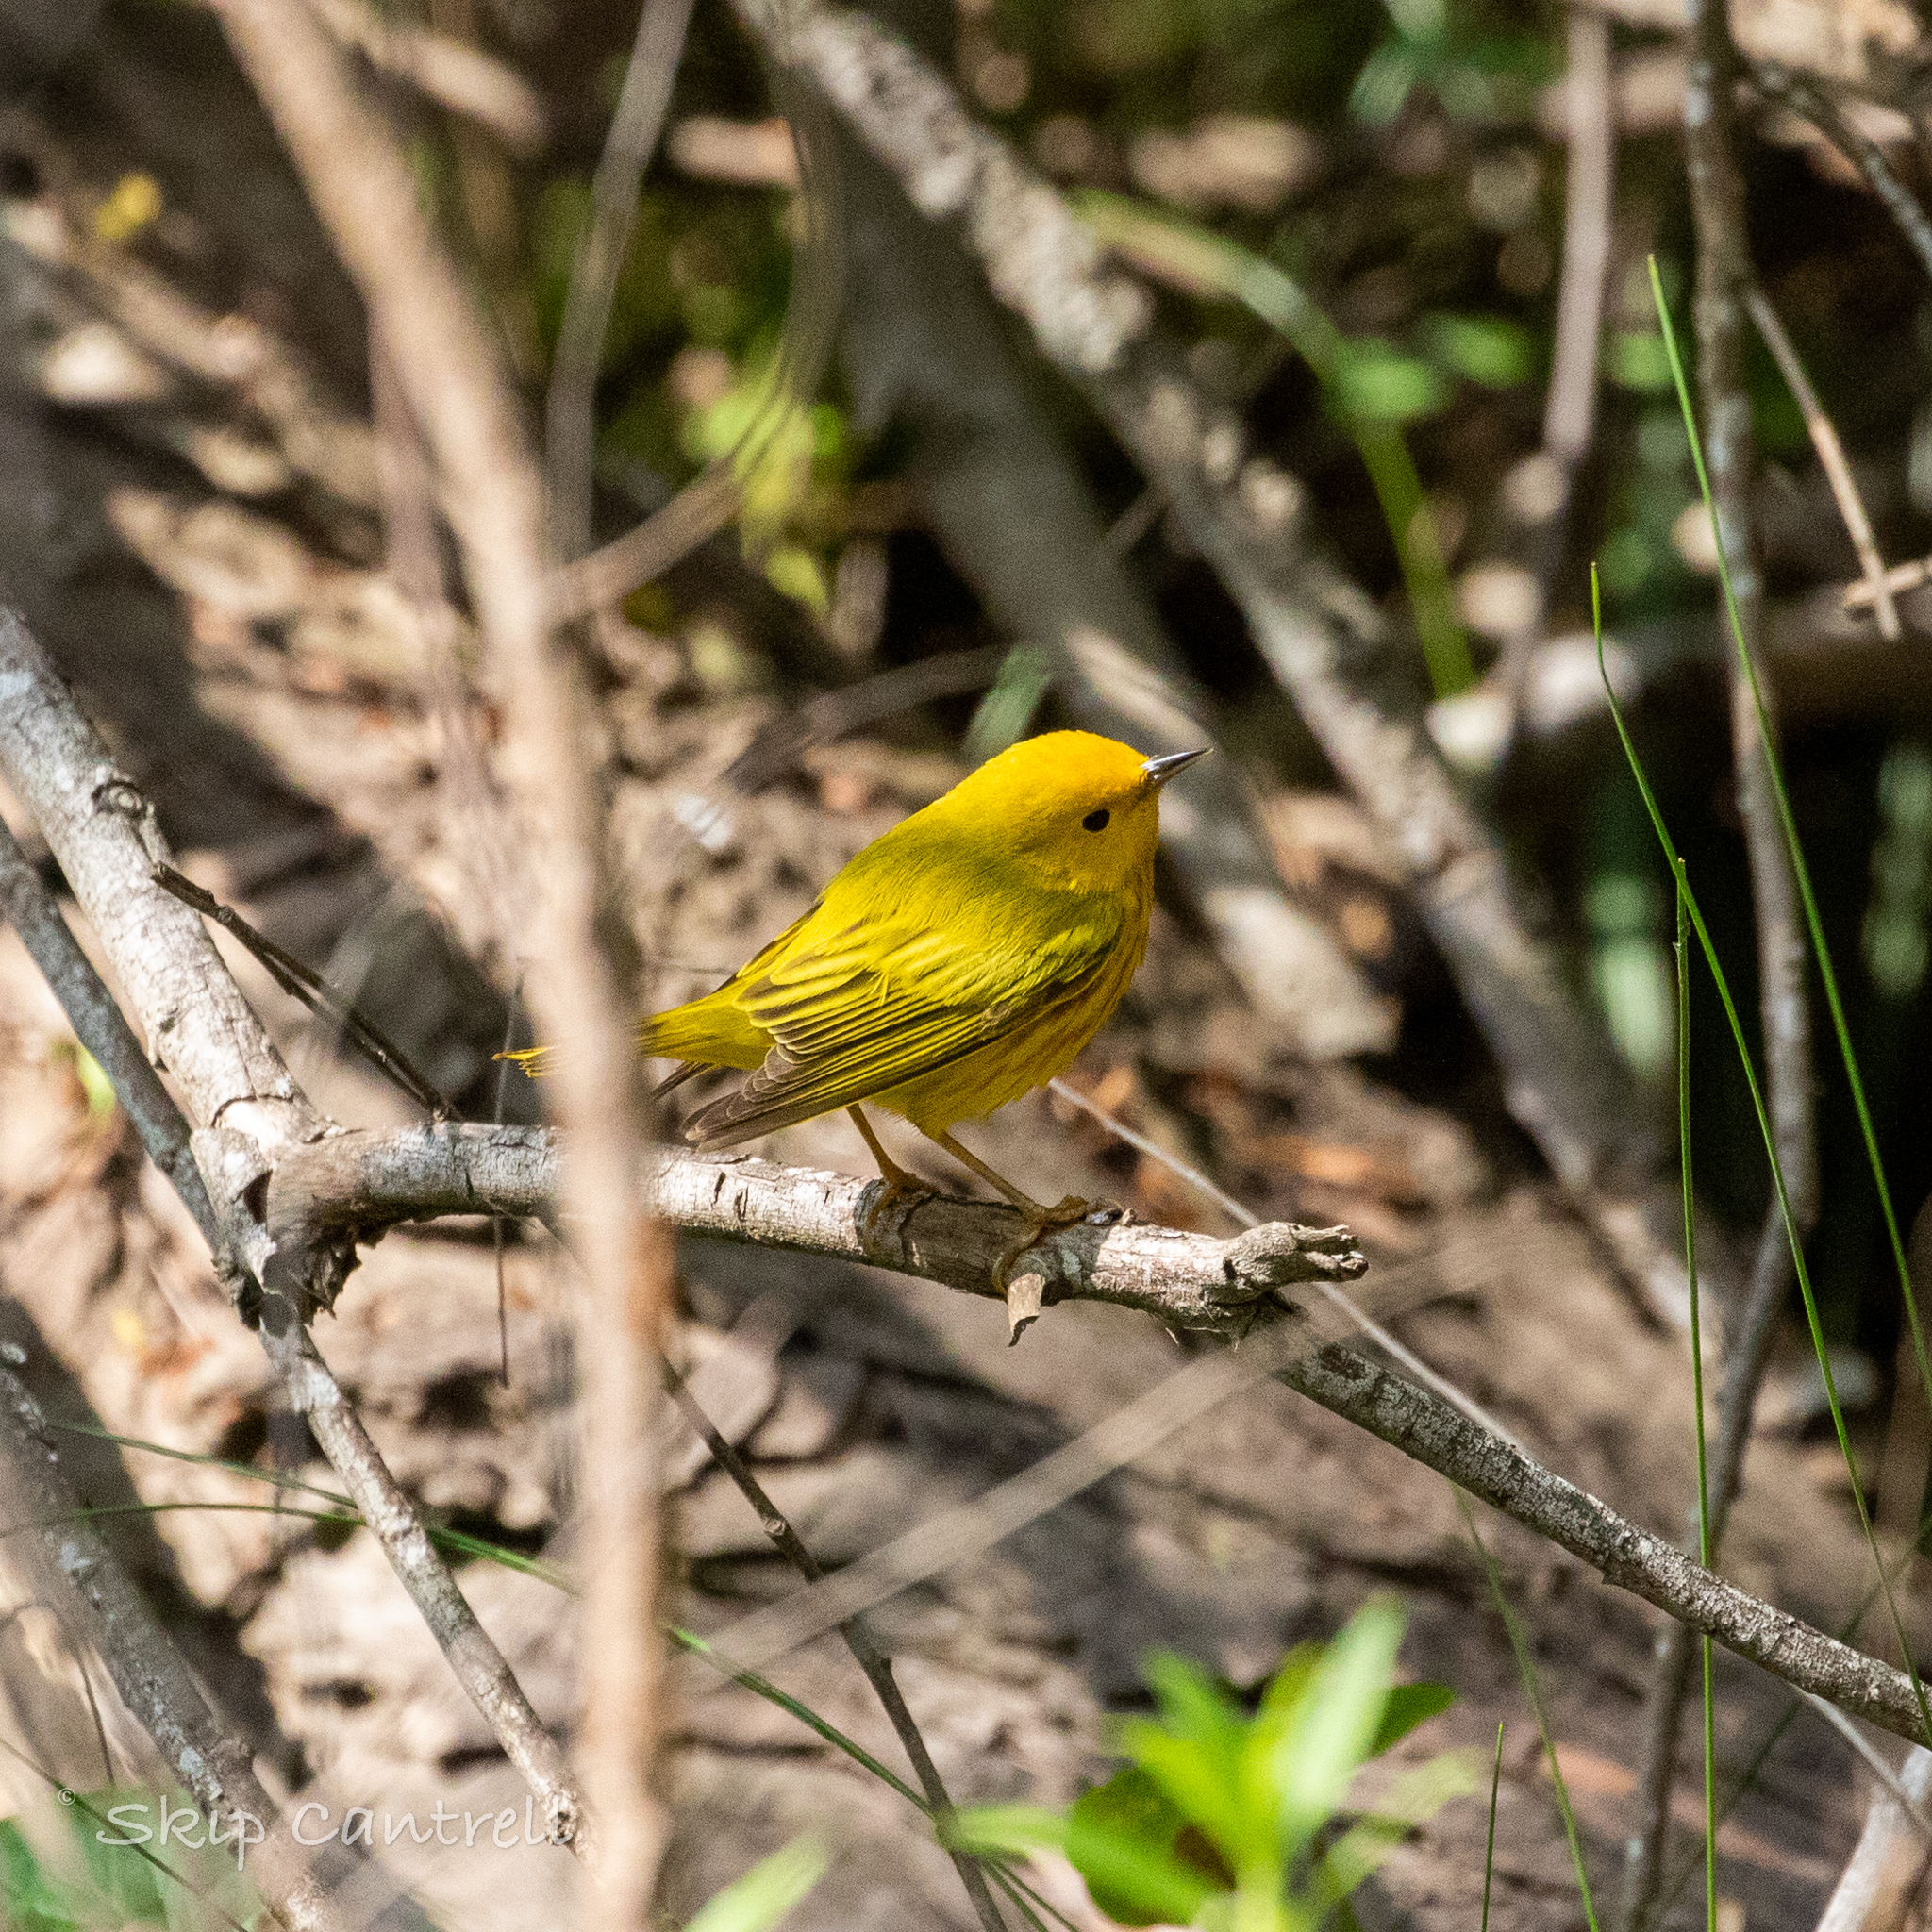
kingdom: Animalia
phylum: Chordata
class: Aves
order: Passeriformes
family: Parulidae
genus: Setophaga
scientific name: Setophaga petechia
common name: Yellow warbler
